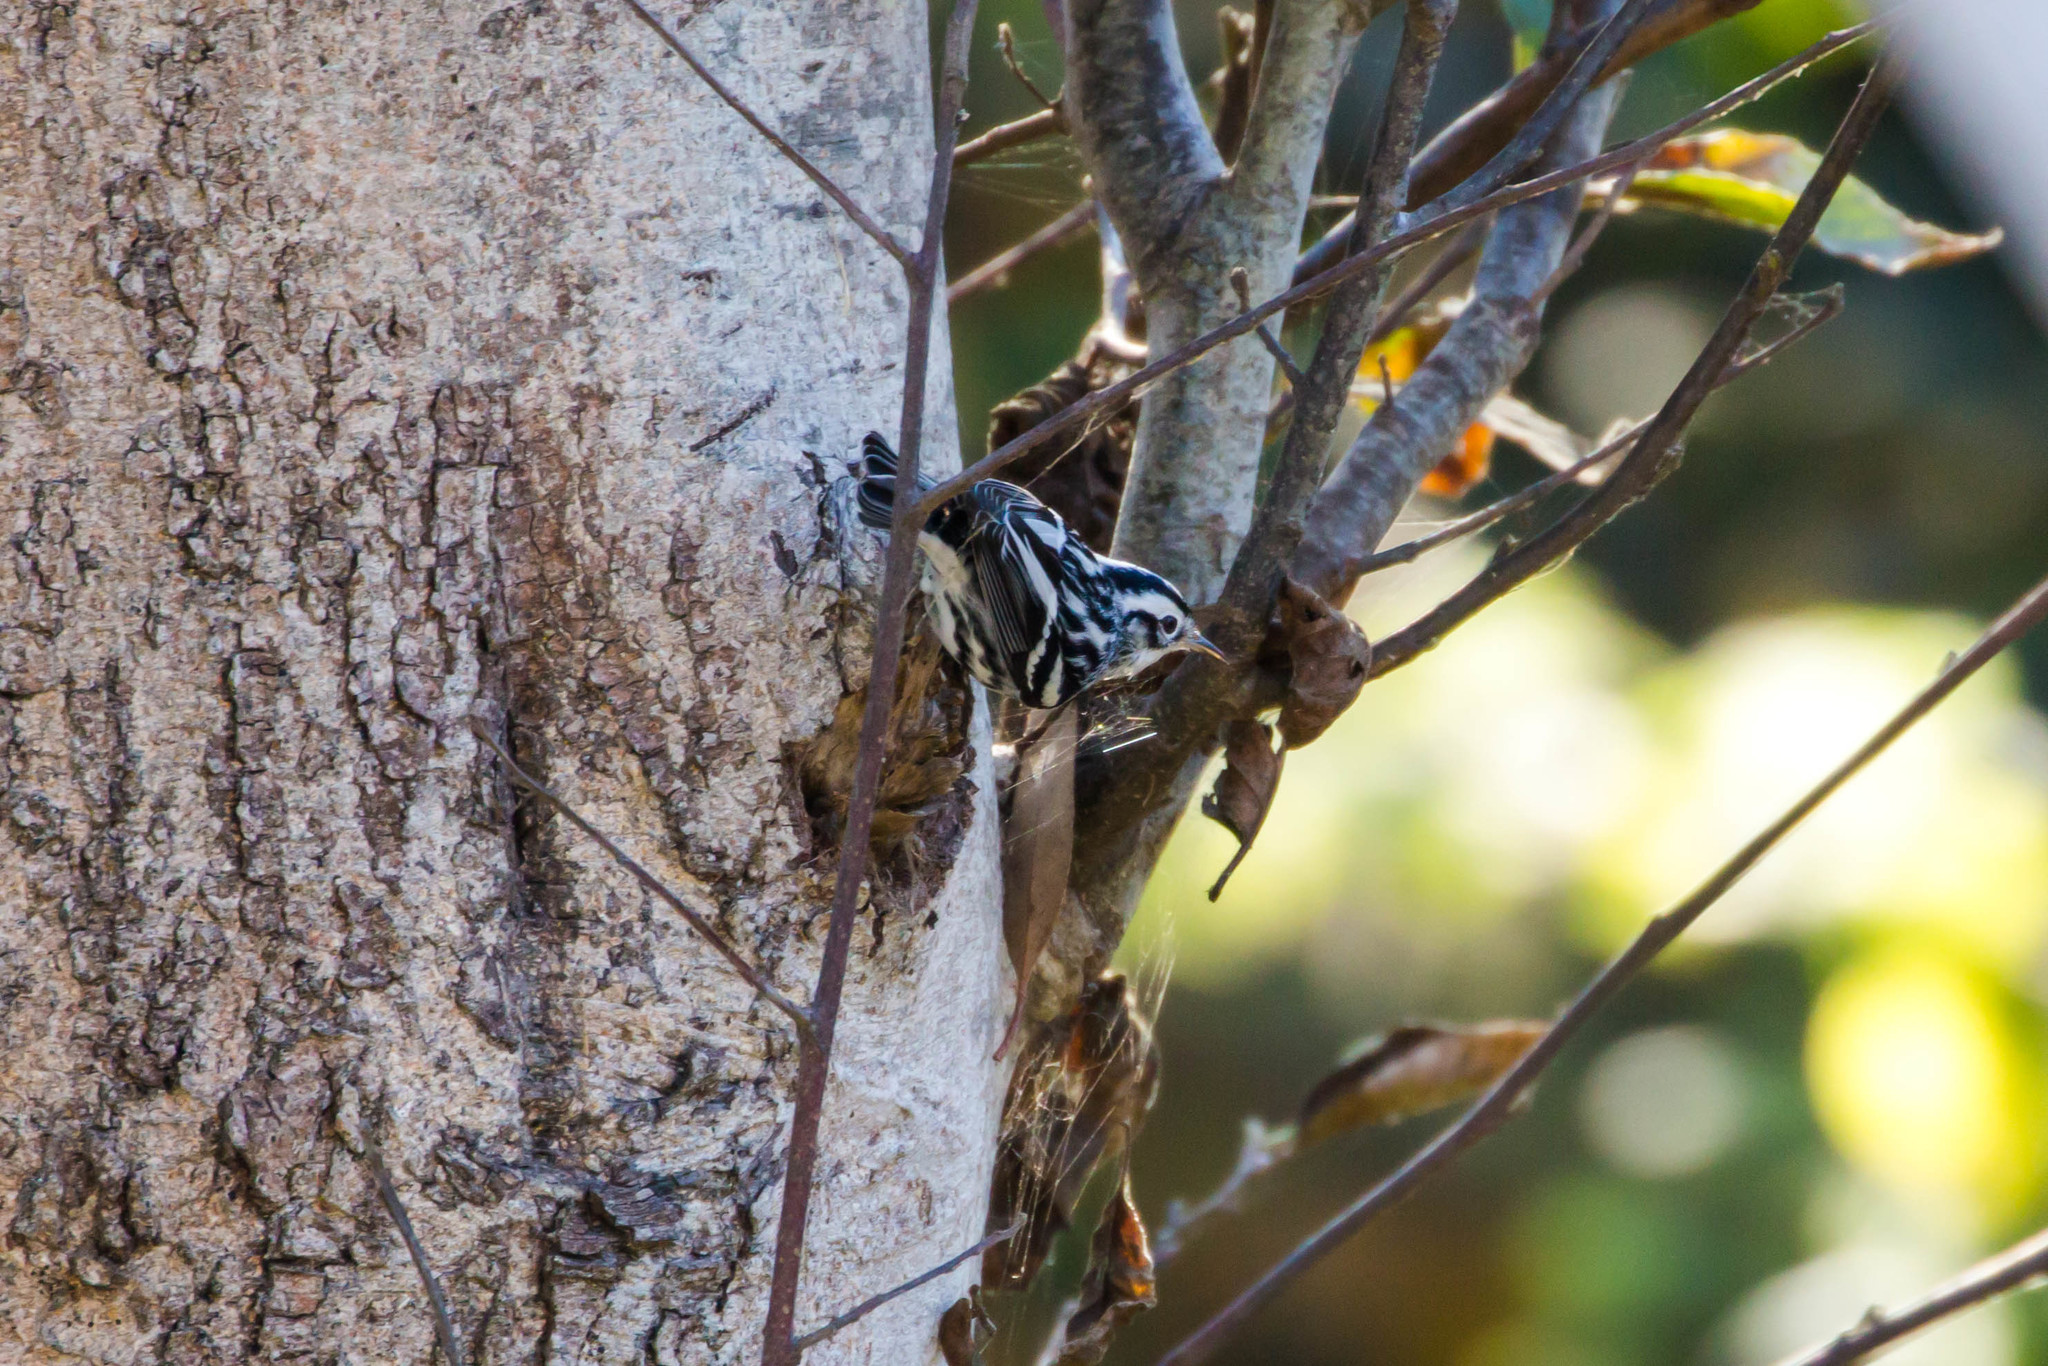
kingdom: Animalia
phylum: Chordata
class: Aves
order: Passeriformes
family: Parulidae
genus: Mniotilta
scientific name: Mniotilta varia
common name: Black-and-white warbler
